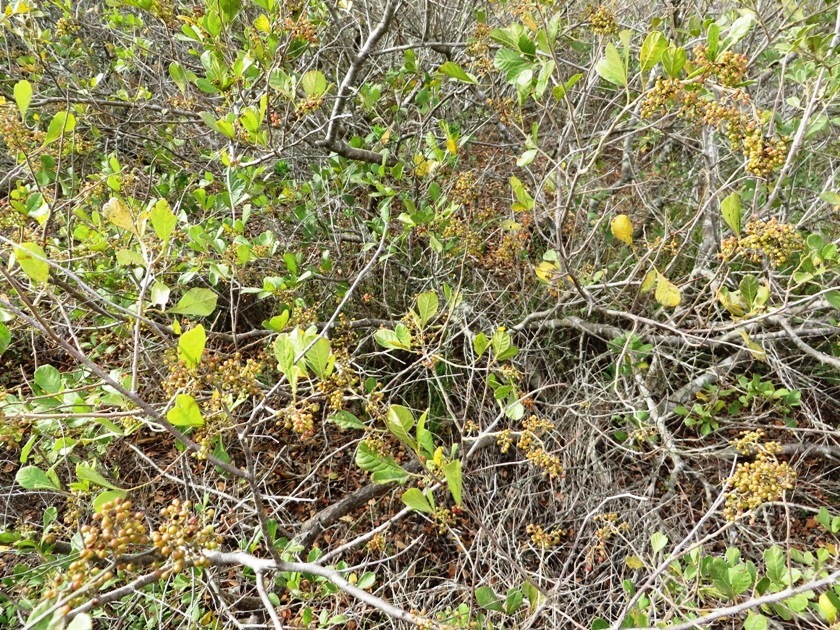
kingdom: Plantae
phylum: Tracheophyta
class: Magnoliopsida
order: Sapindales
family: Anacardiaceae
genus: Searsia
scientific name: Searsia rehmanniana
